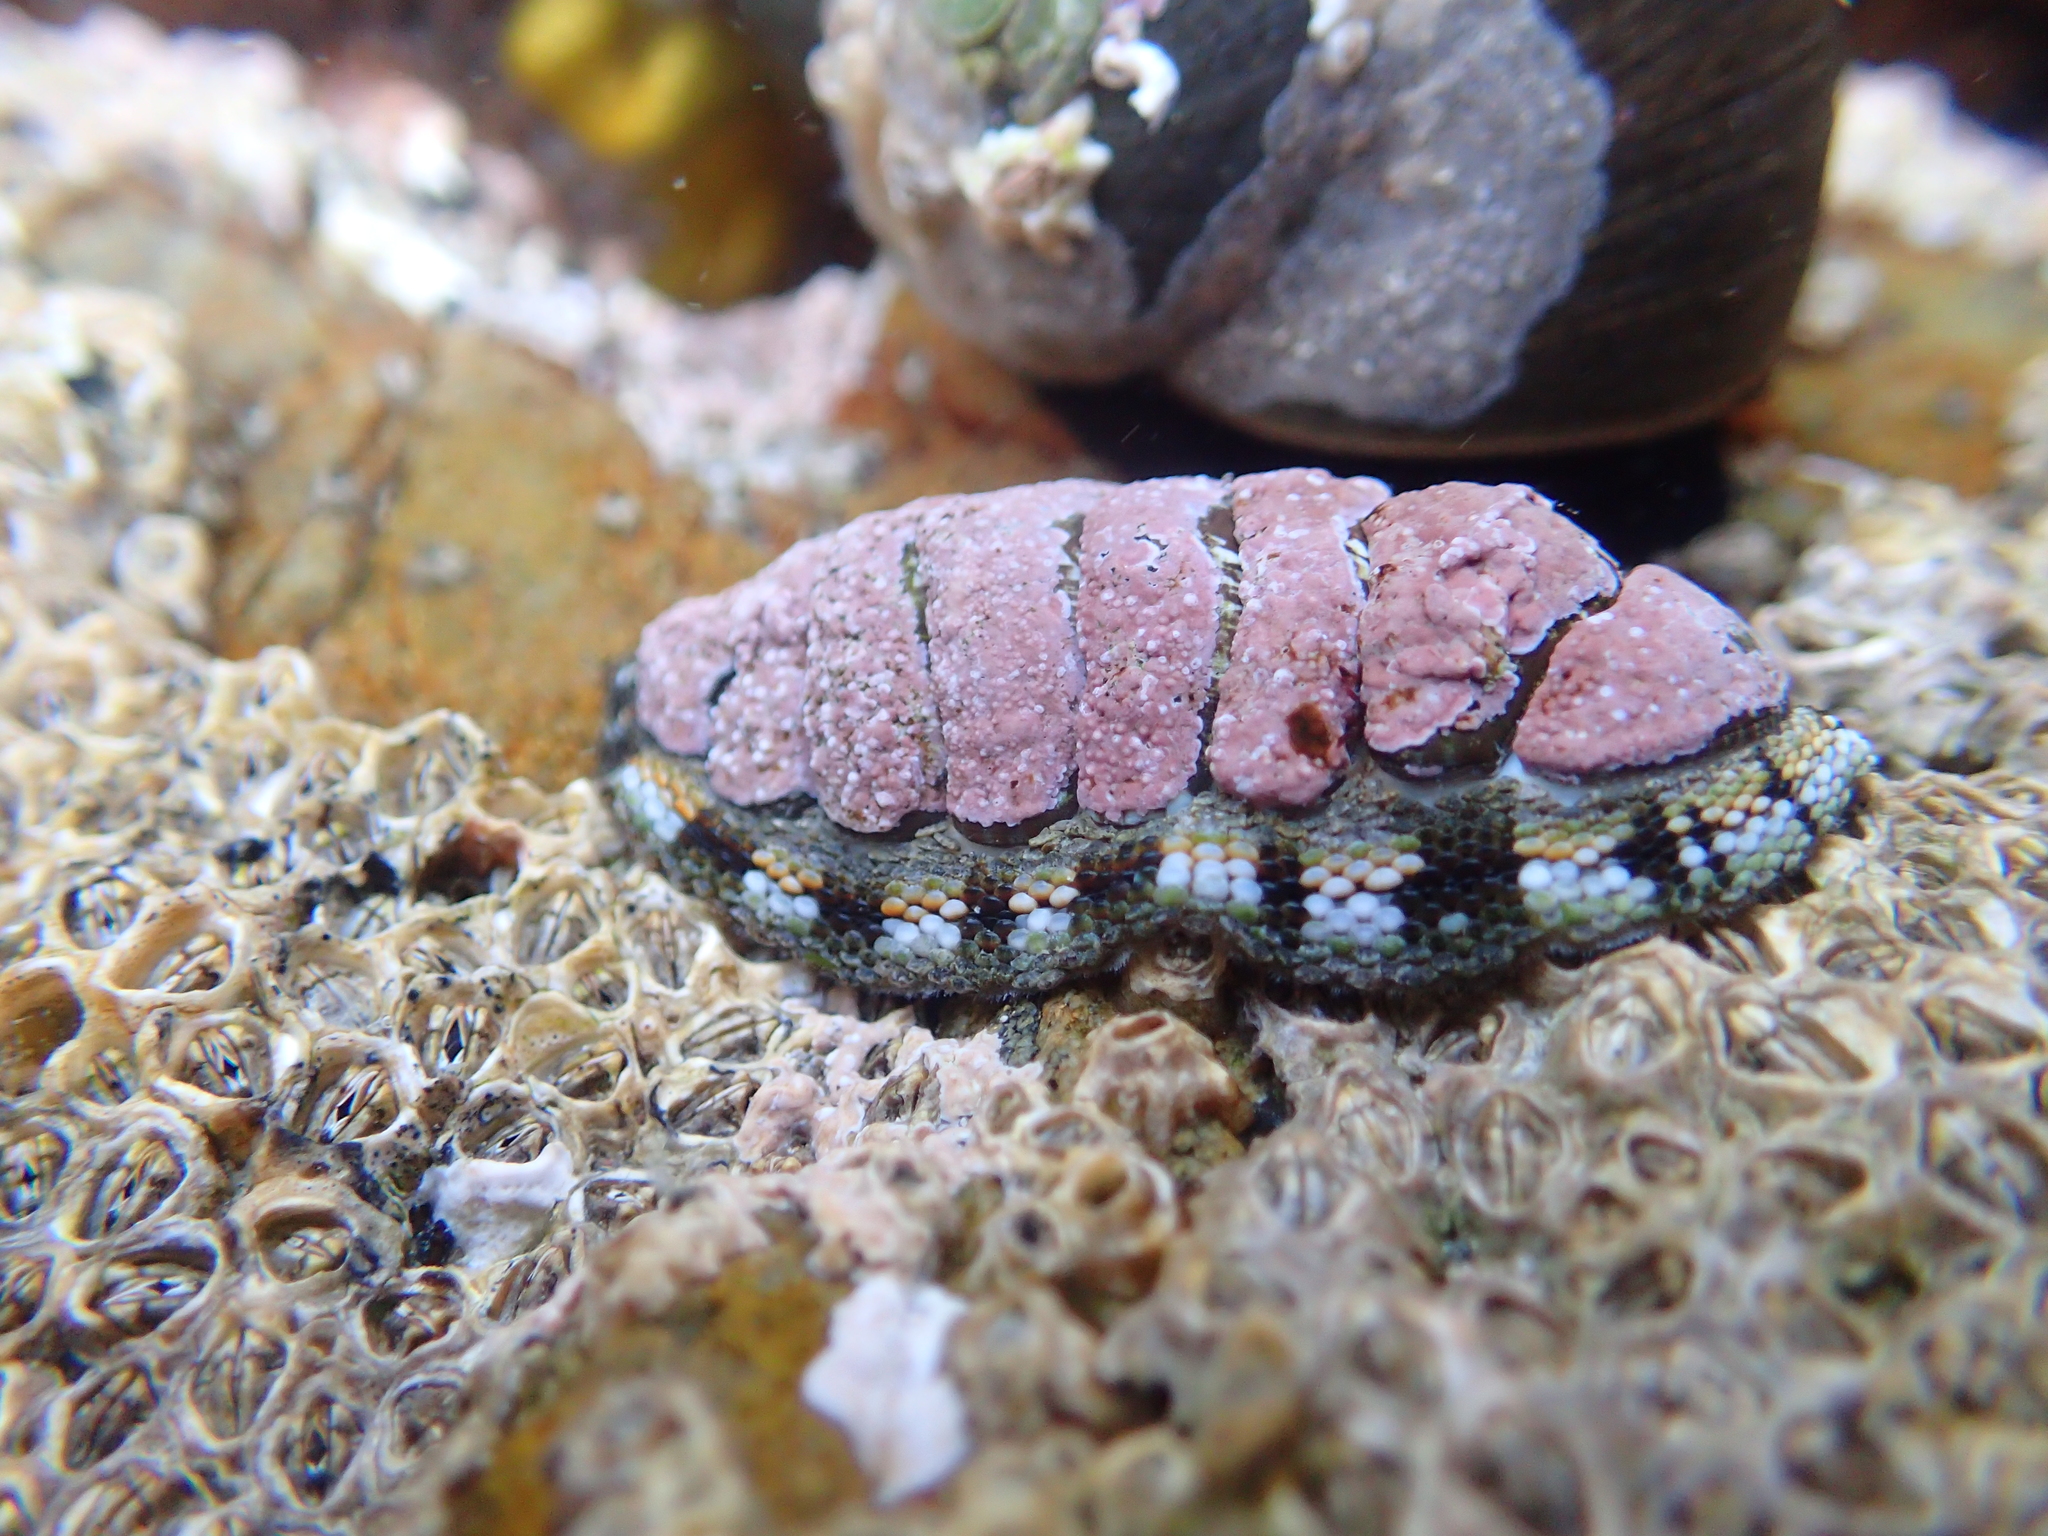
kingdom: Animalia
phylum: Mollusca
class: Polyplacophora
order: Chitonida
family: Chitonidae
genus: Sypharochiton
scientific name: Sypharochiton sinclairi
